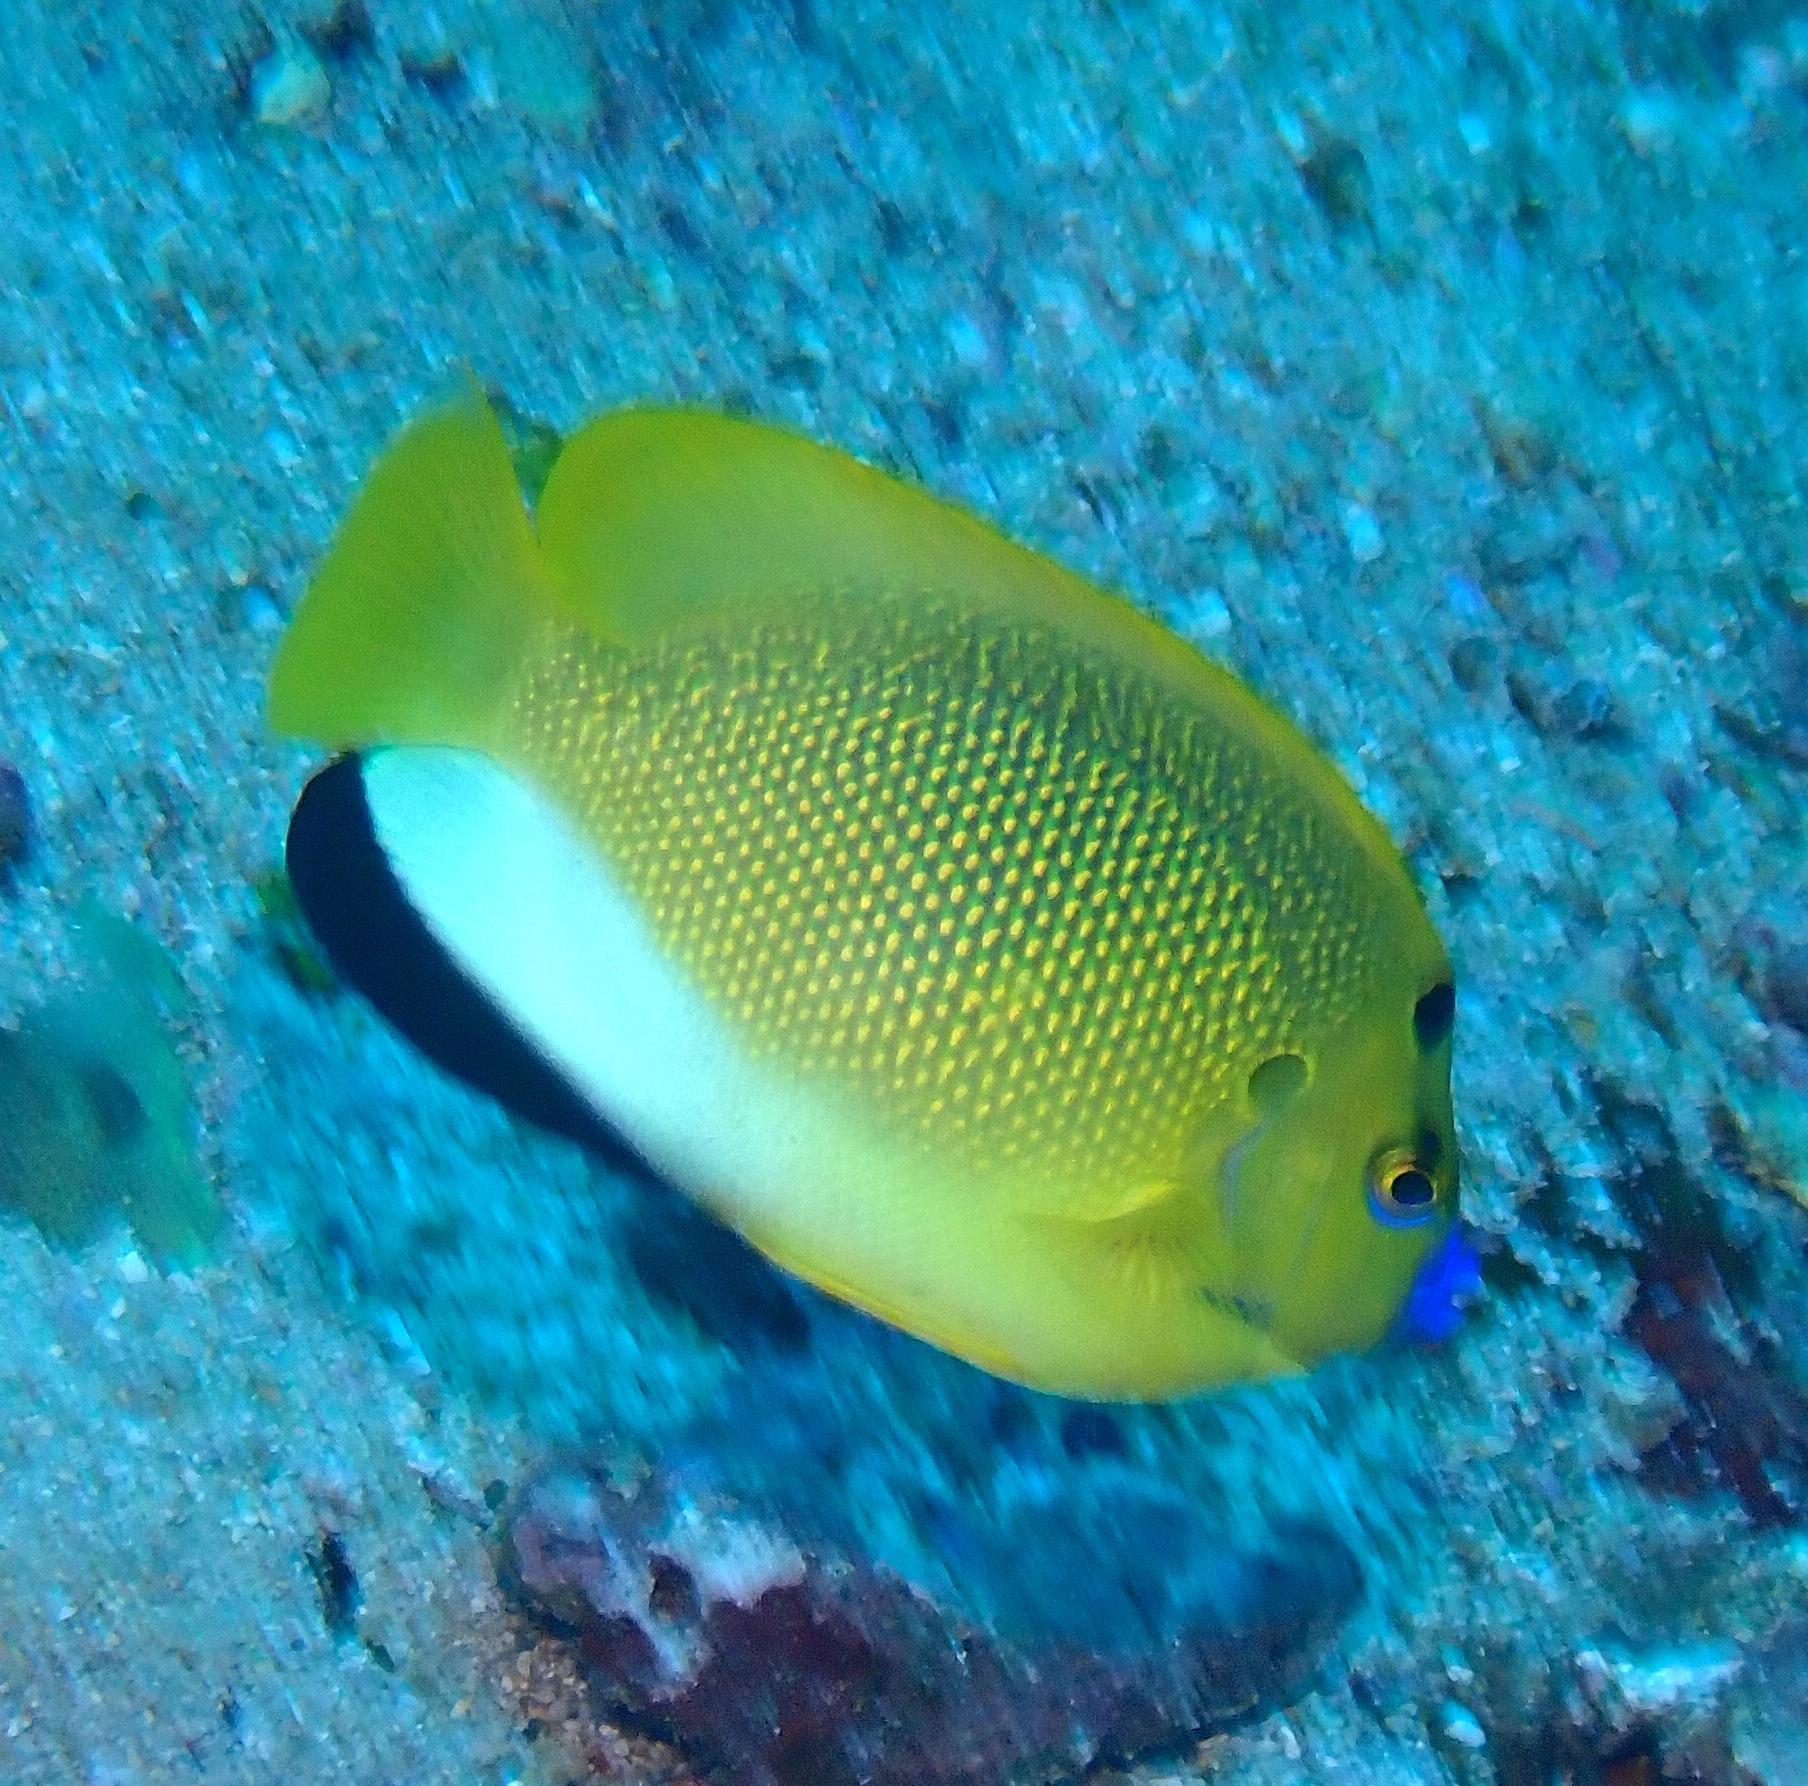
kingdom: Animalia
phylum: Chordata
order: Perciformes
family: Pomacanthidae
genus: Apolemichthys
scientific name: Apolemichthys trimaculatus
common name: Threespot angelfish
